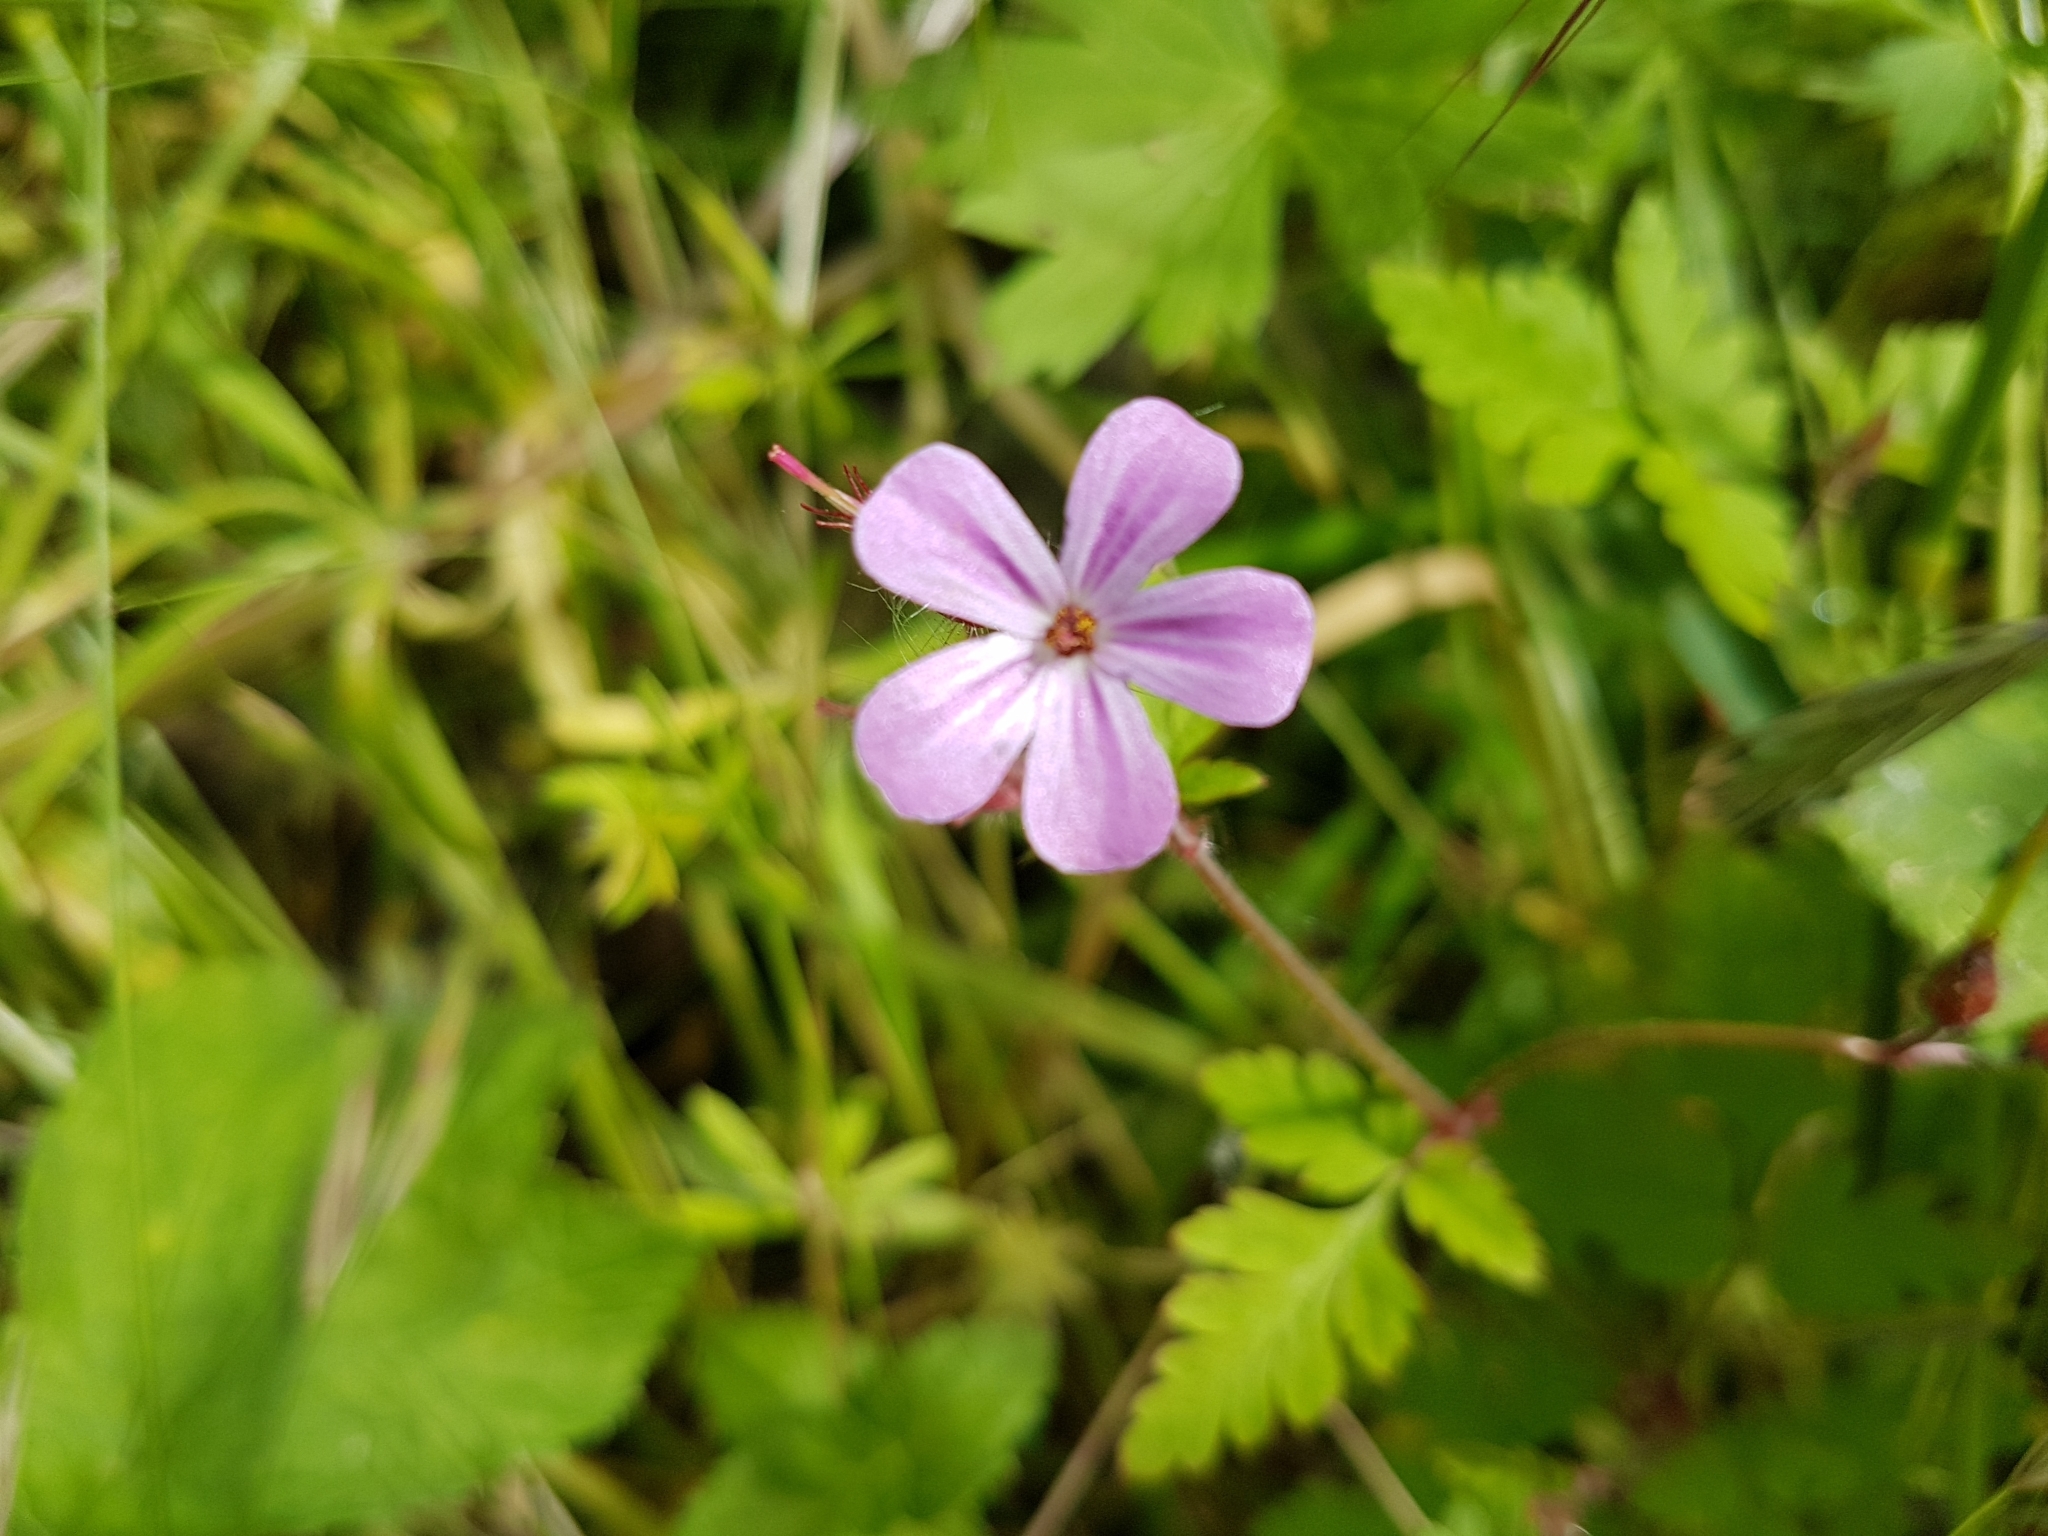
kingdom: Plantae
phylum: Tracheophyta
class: Magnoliopsida
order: Geraniales
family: Geraniaceae
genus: Geranium
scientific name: Geranium robertianum
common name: Herb-robert
